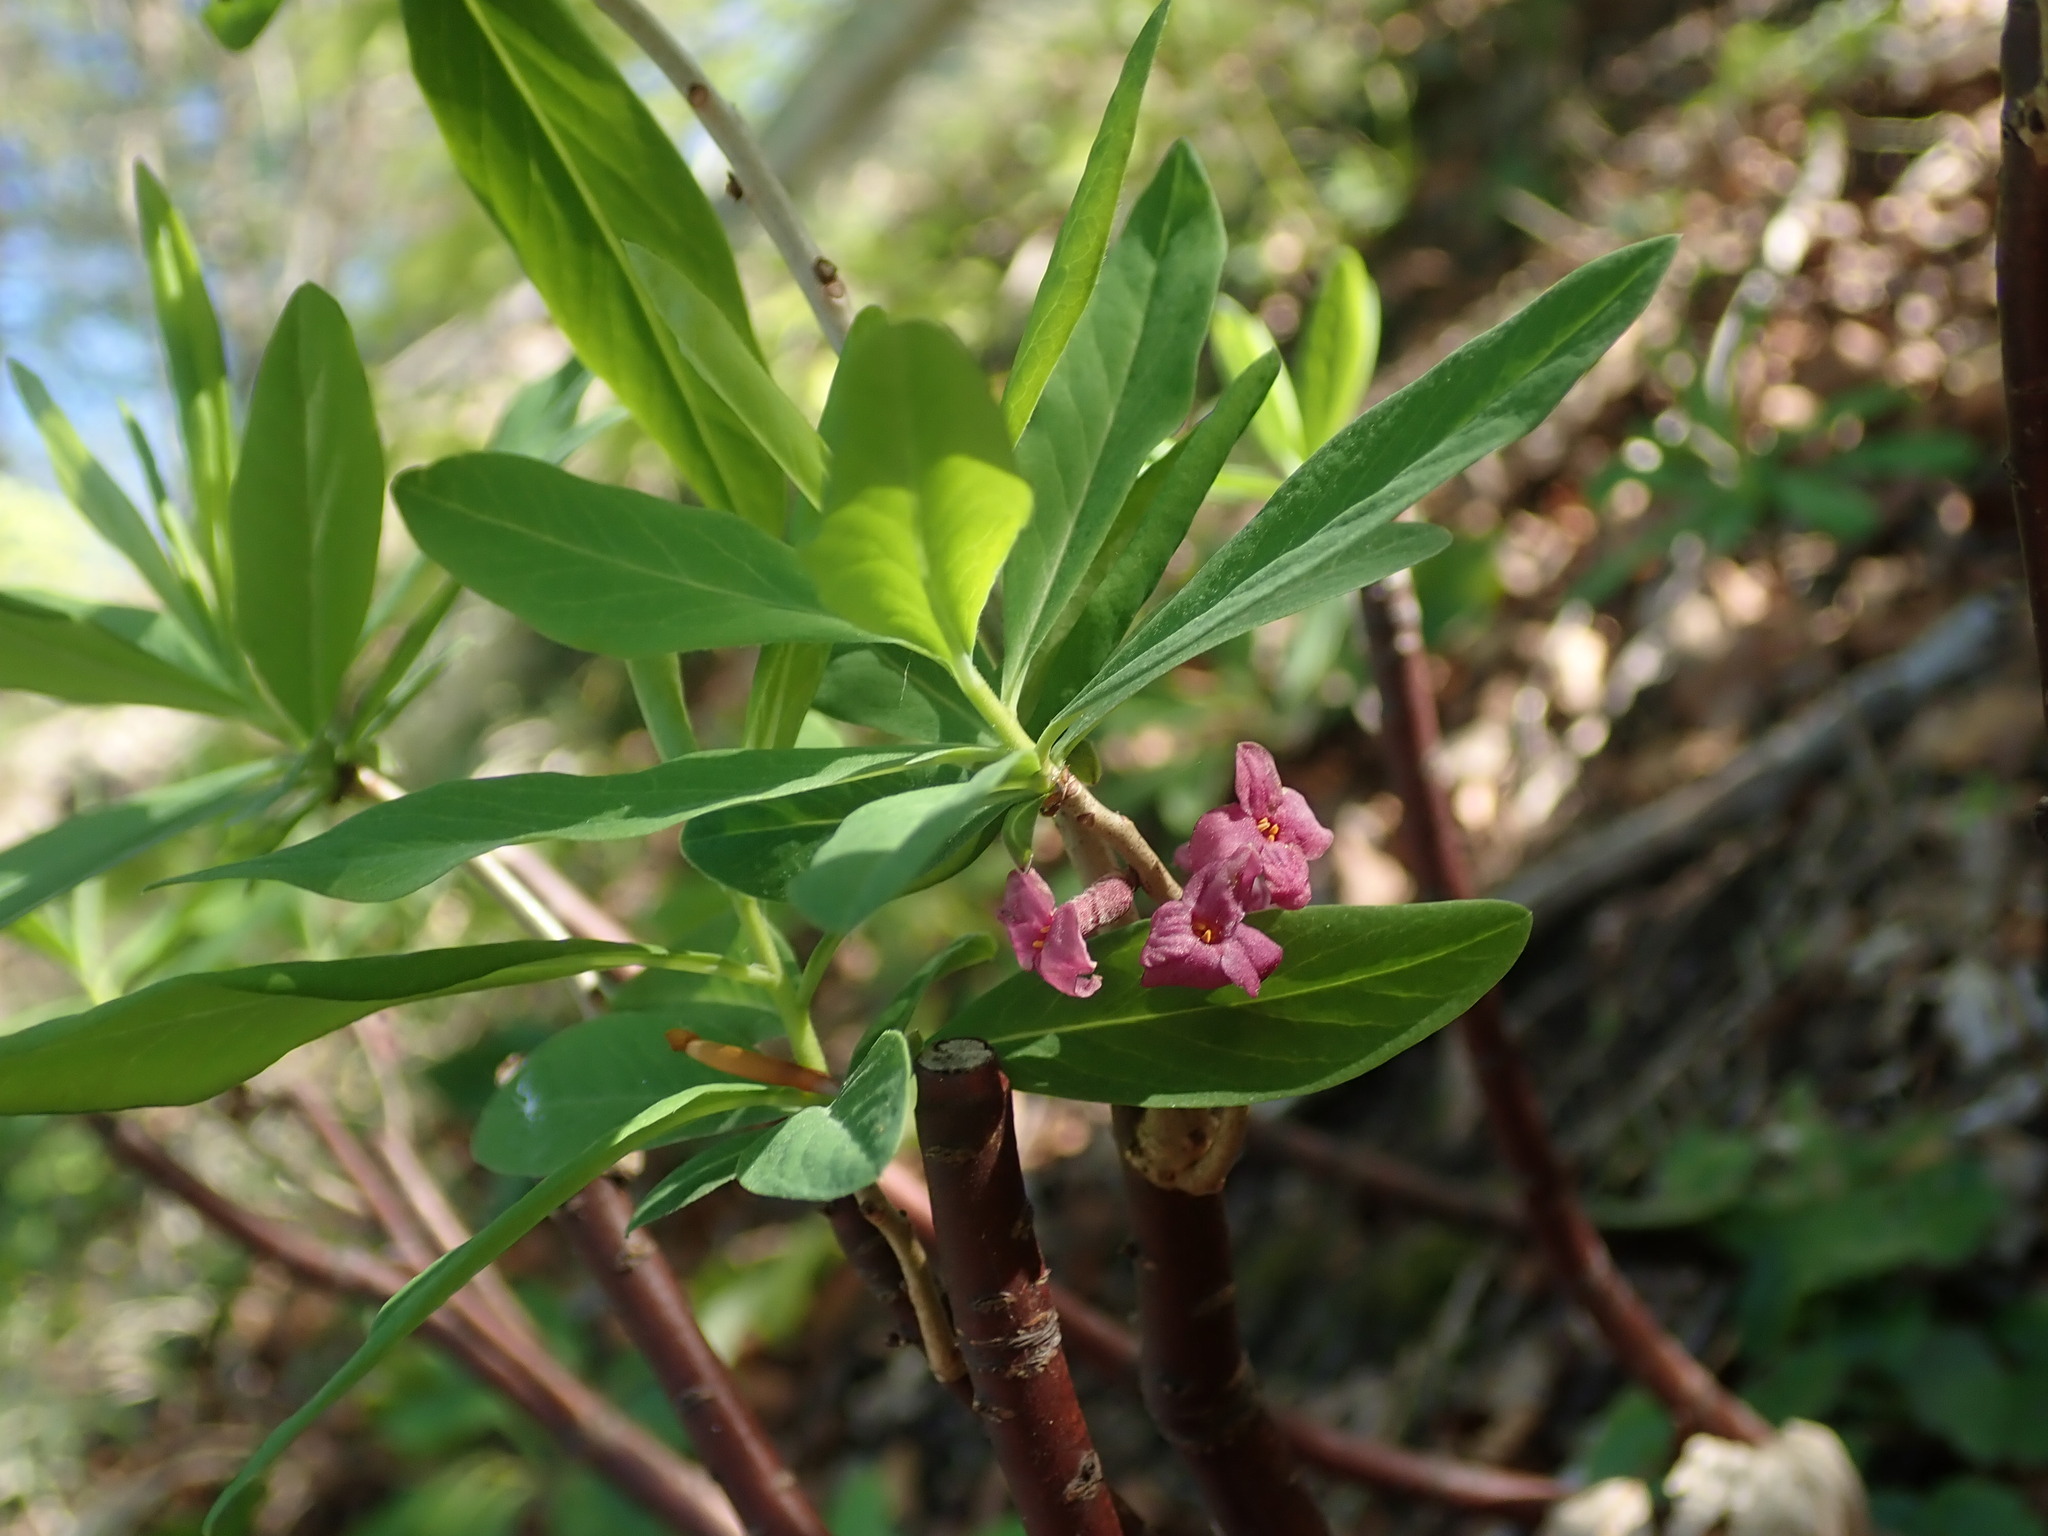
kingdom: Plantae
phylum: Tracheophyta
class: Magnoliopsida
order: Malvales
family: Thymelaeaceae
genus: Daphne
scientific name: Daphne mezereum
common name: Mezereon
